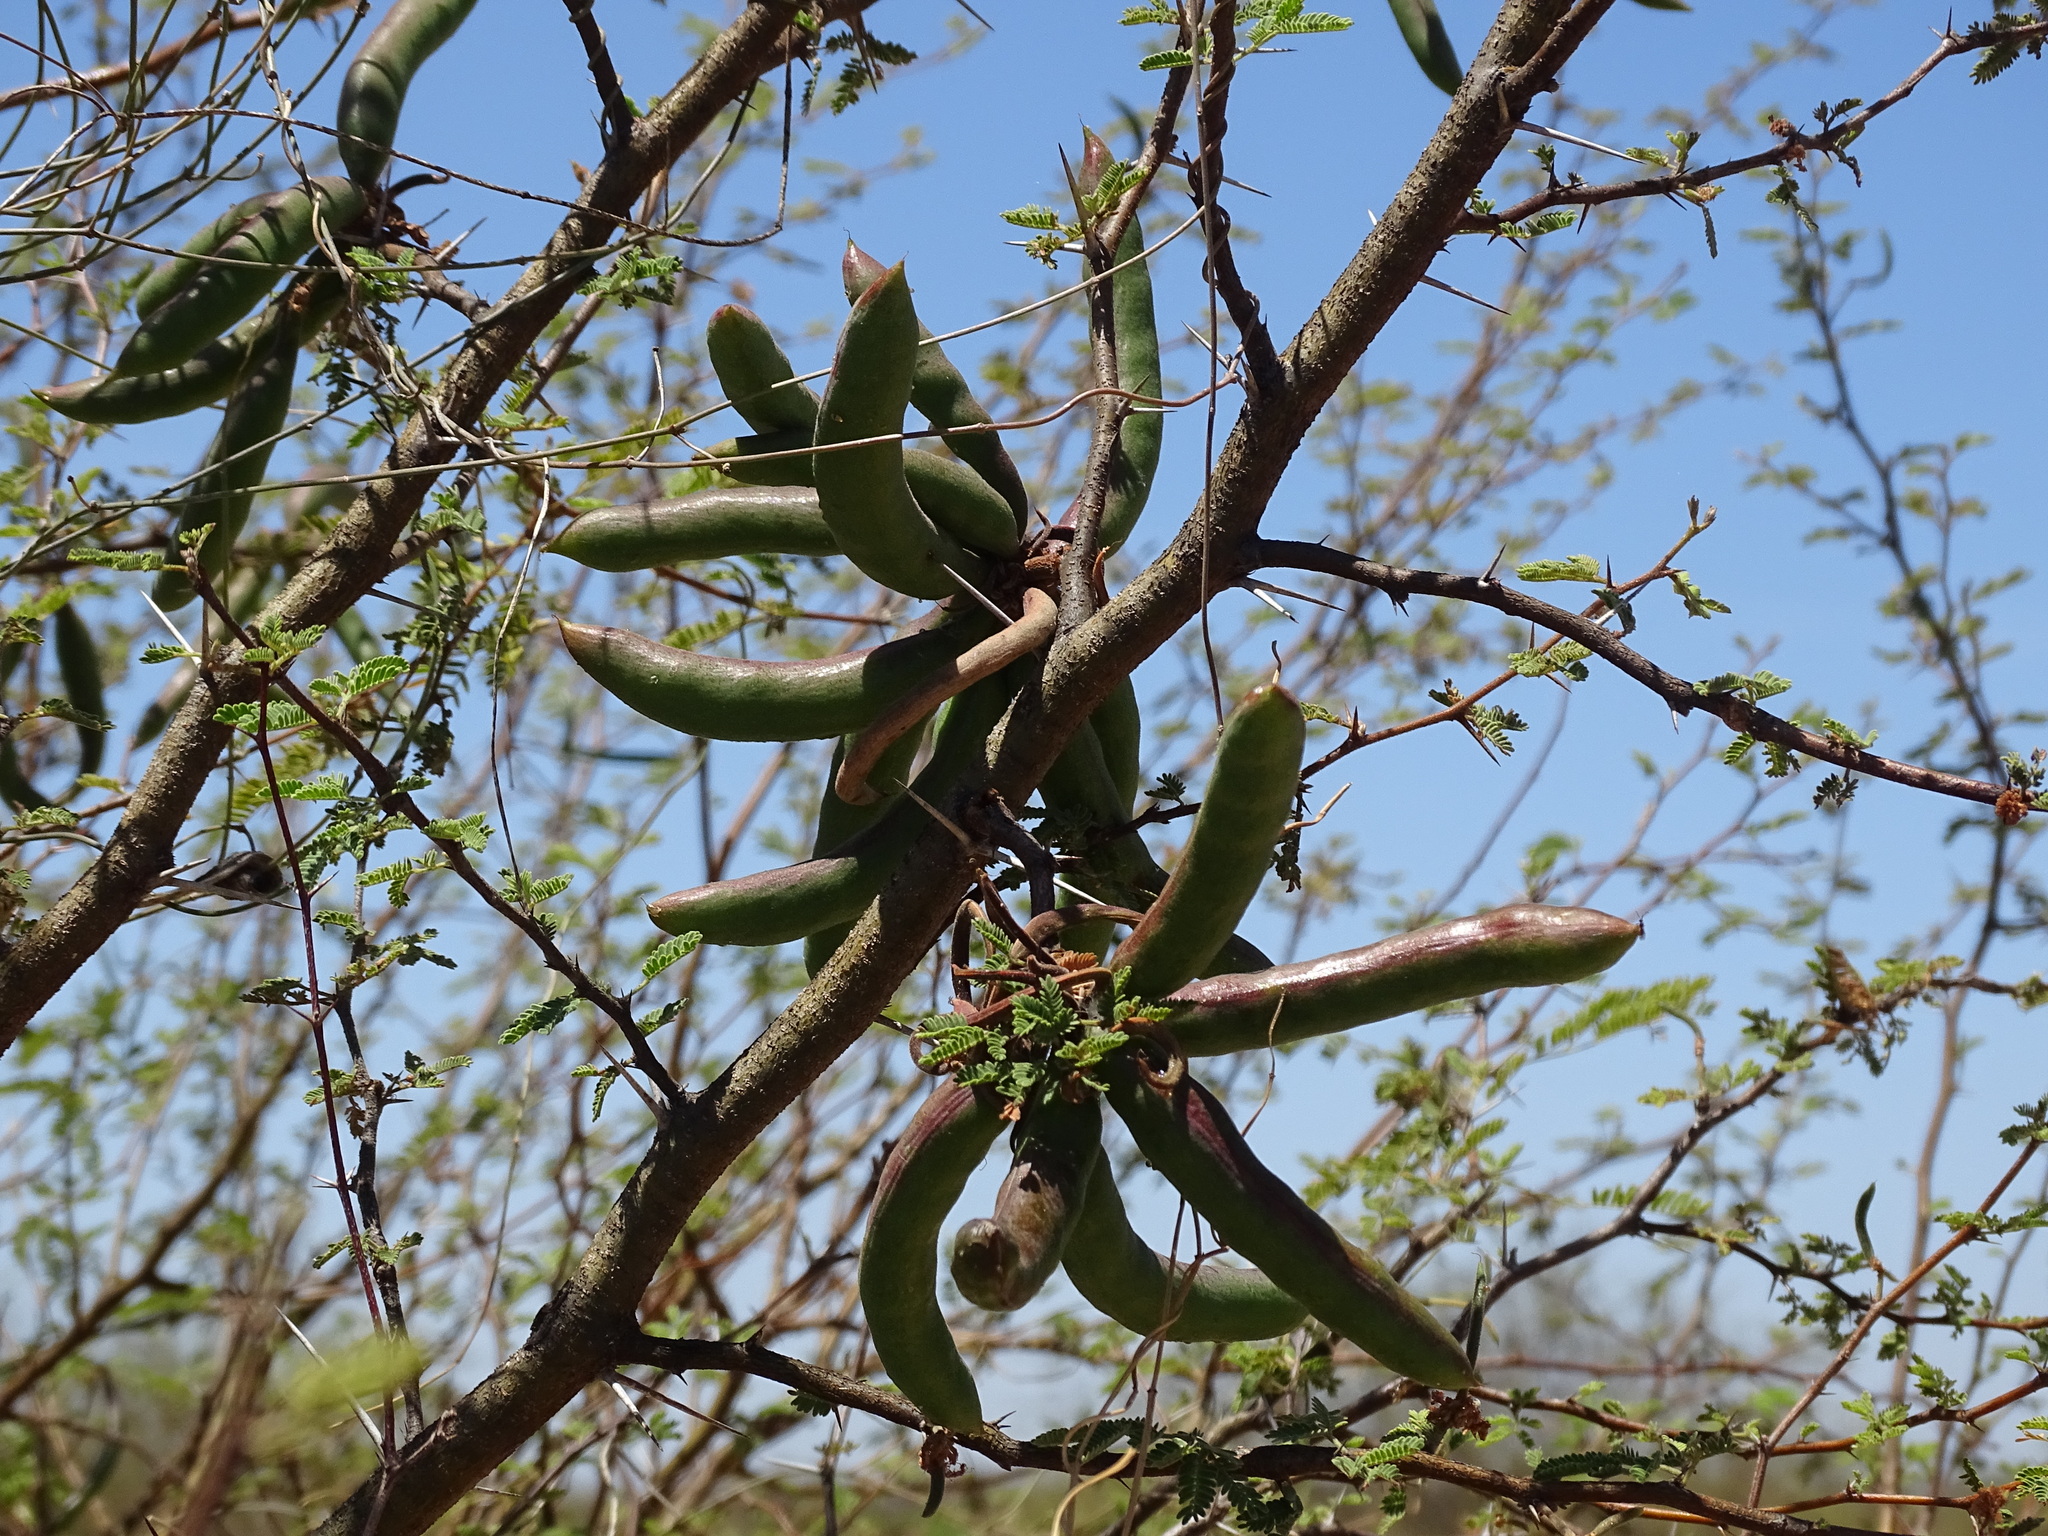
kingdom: Plantae
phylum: Tracheophyta
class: Magnoliopsida
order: Fabales
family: Fabaceae
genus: Vachellia
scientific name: Vachellia farnesiana
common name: Sweet acacia
